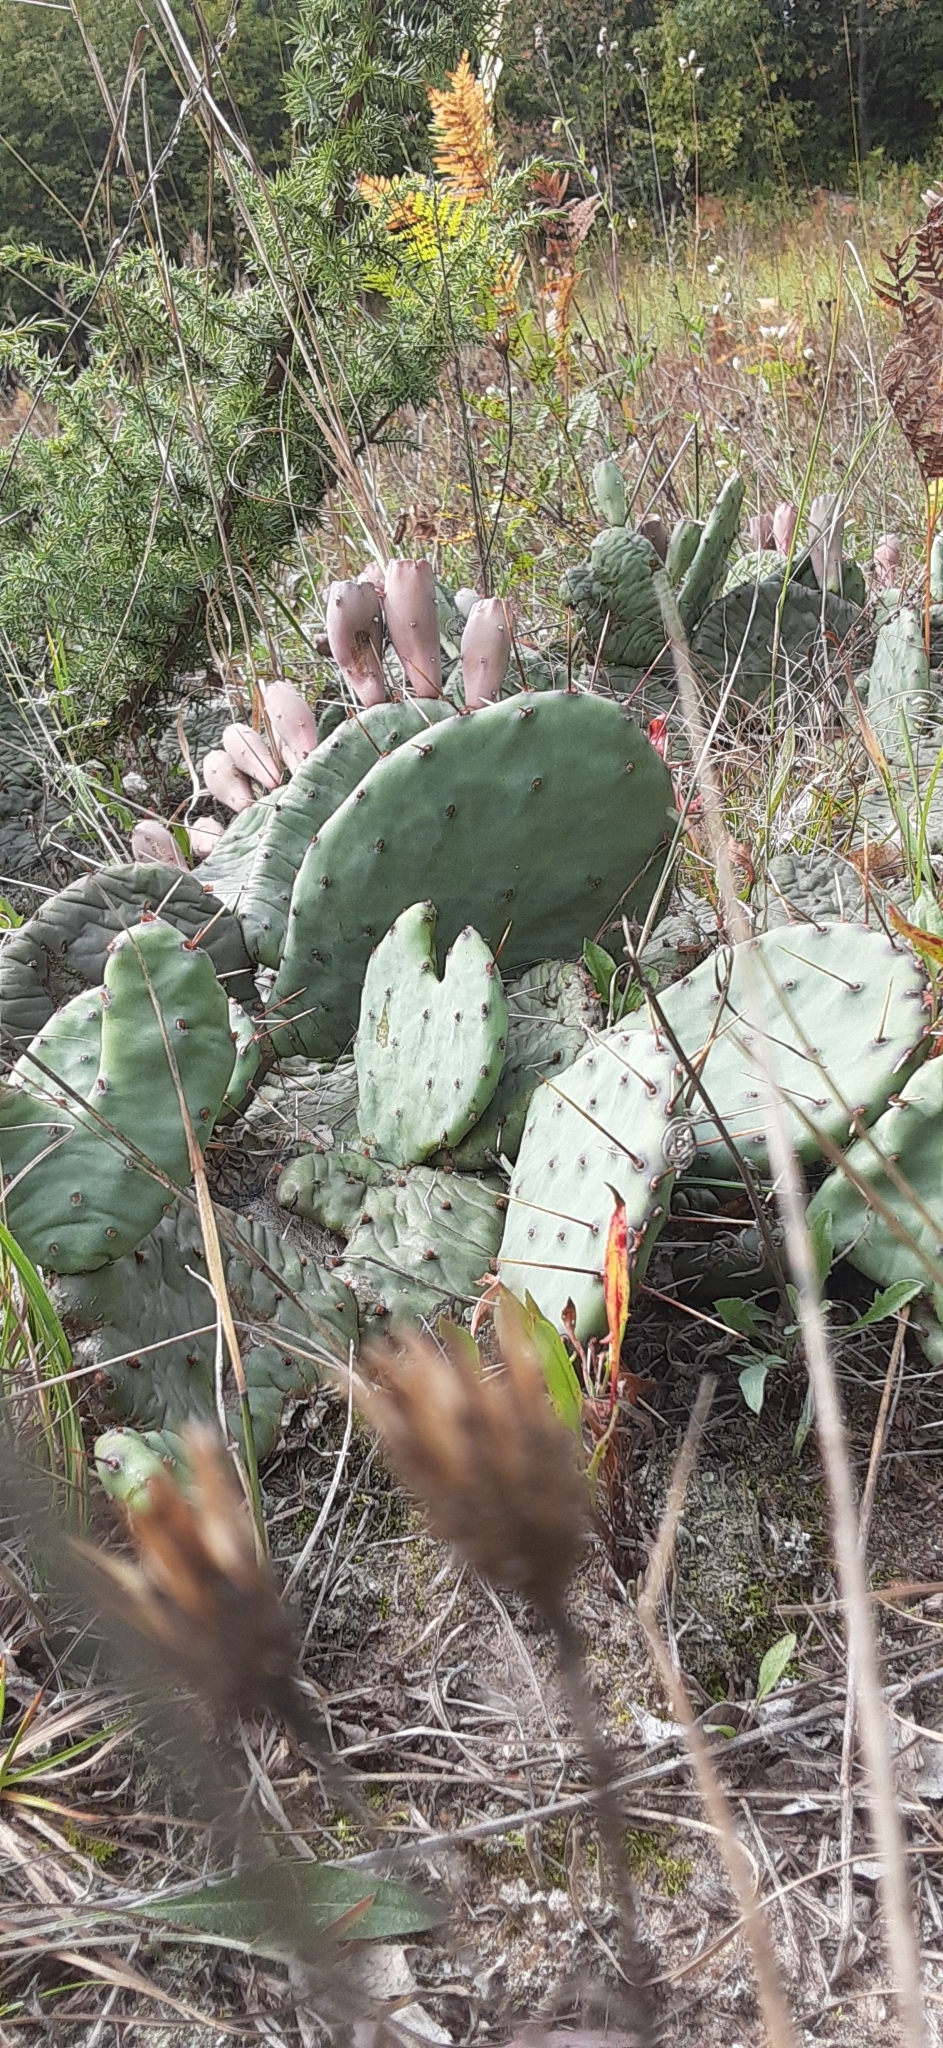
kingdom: Plantae
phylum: Tracheophyta
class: Magnoliopsida
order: Caryophyllales
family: Cactaceae
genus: Opuntia
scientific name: Opuntia humifusa
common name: Eastern prickly-pear
